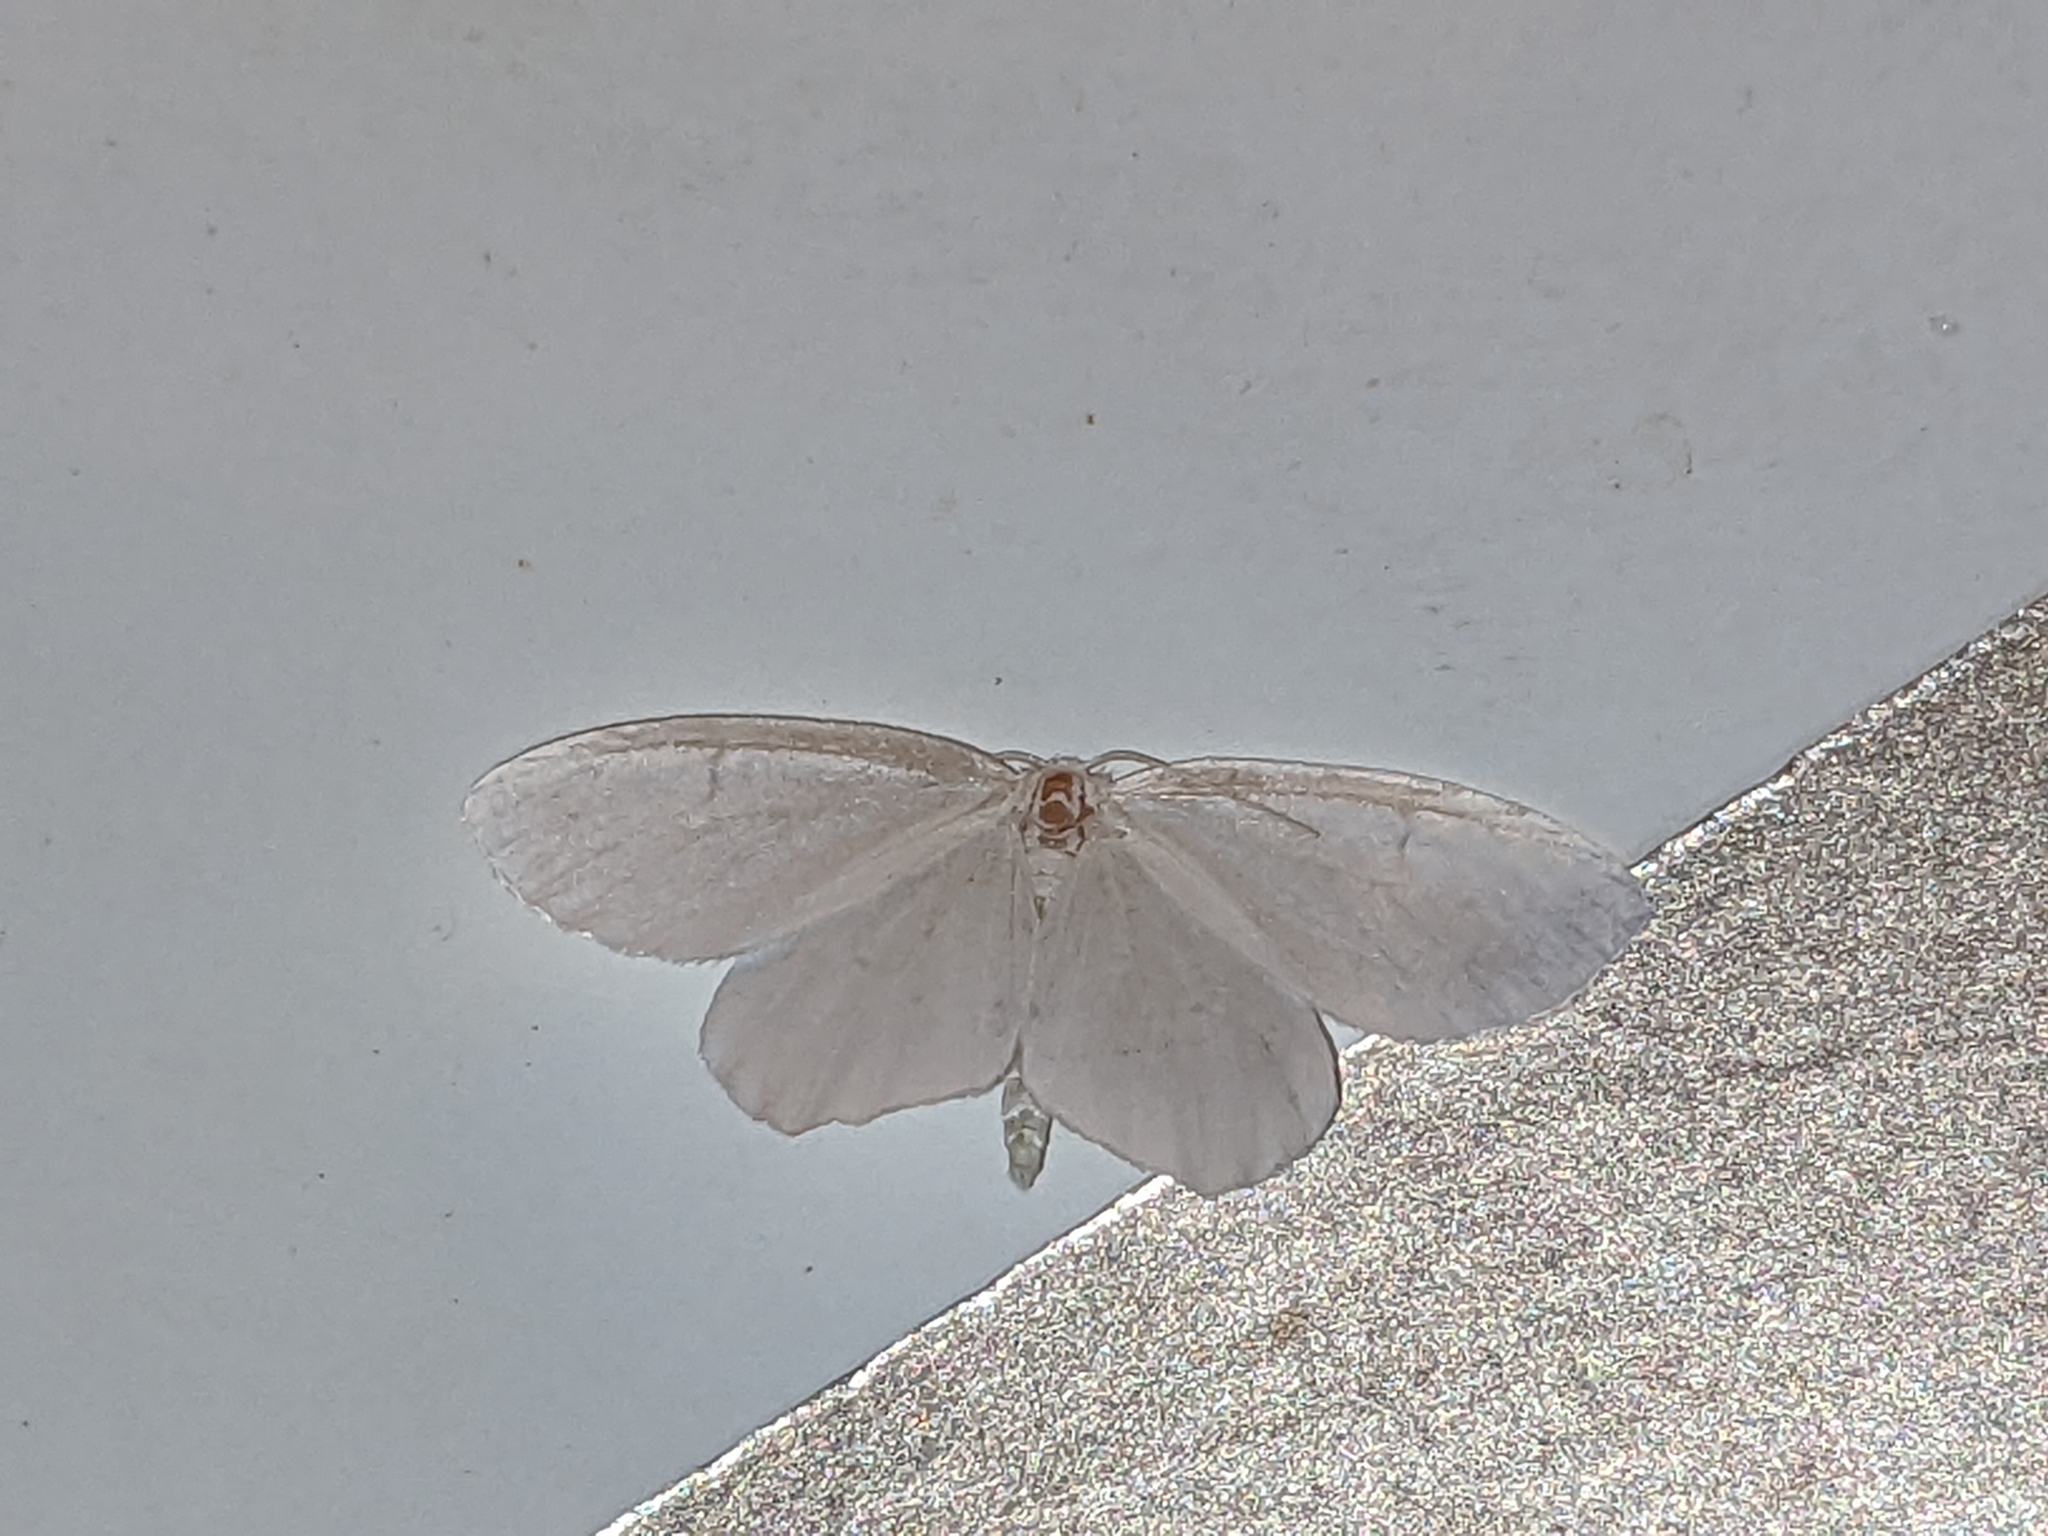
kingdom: Animalia
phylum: Arthropoda
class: Insecta
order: Lepidoptera
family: Geometridae
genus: Eugonobapta
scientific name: Eugonobapta nivosaria
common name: Snowy geometer
